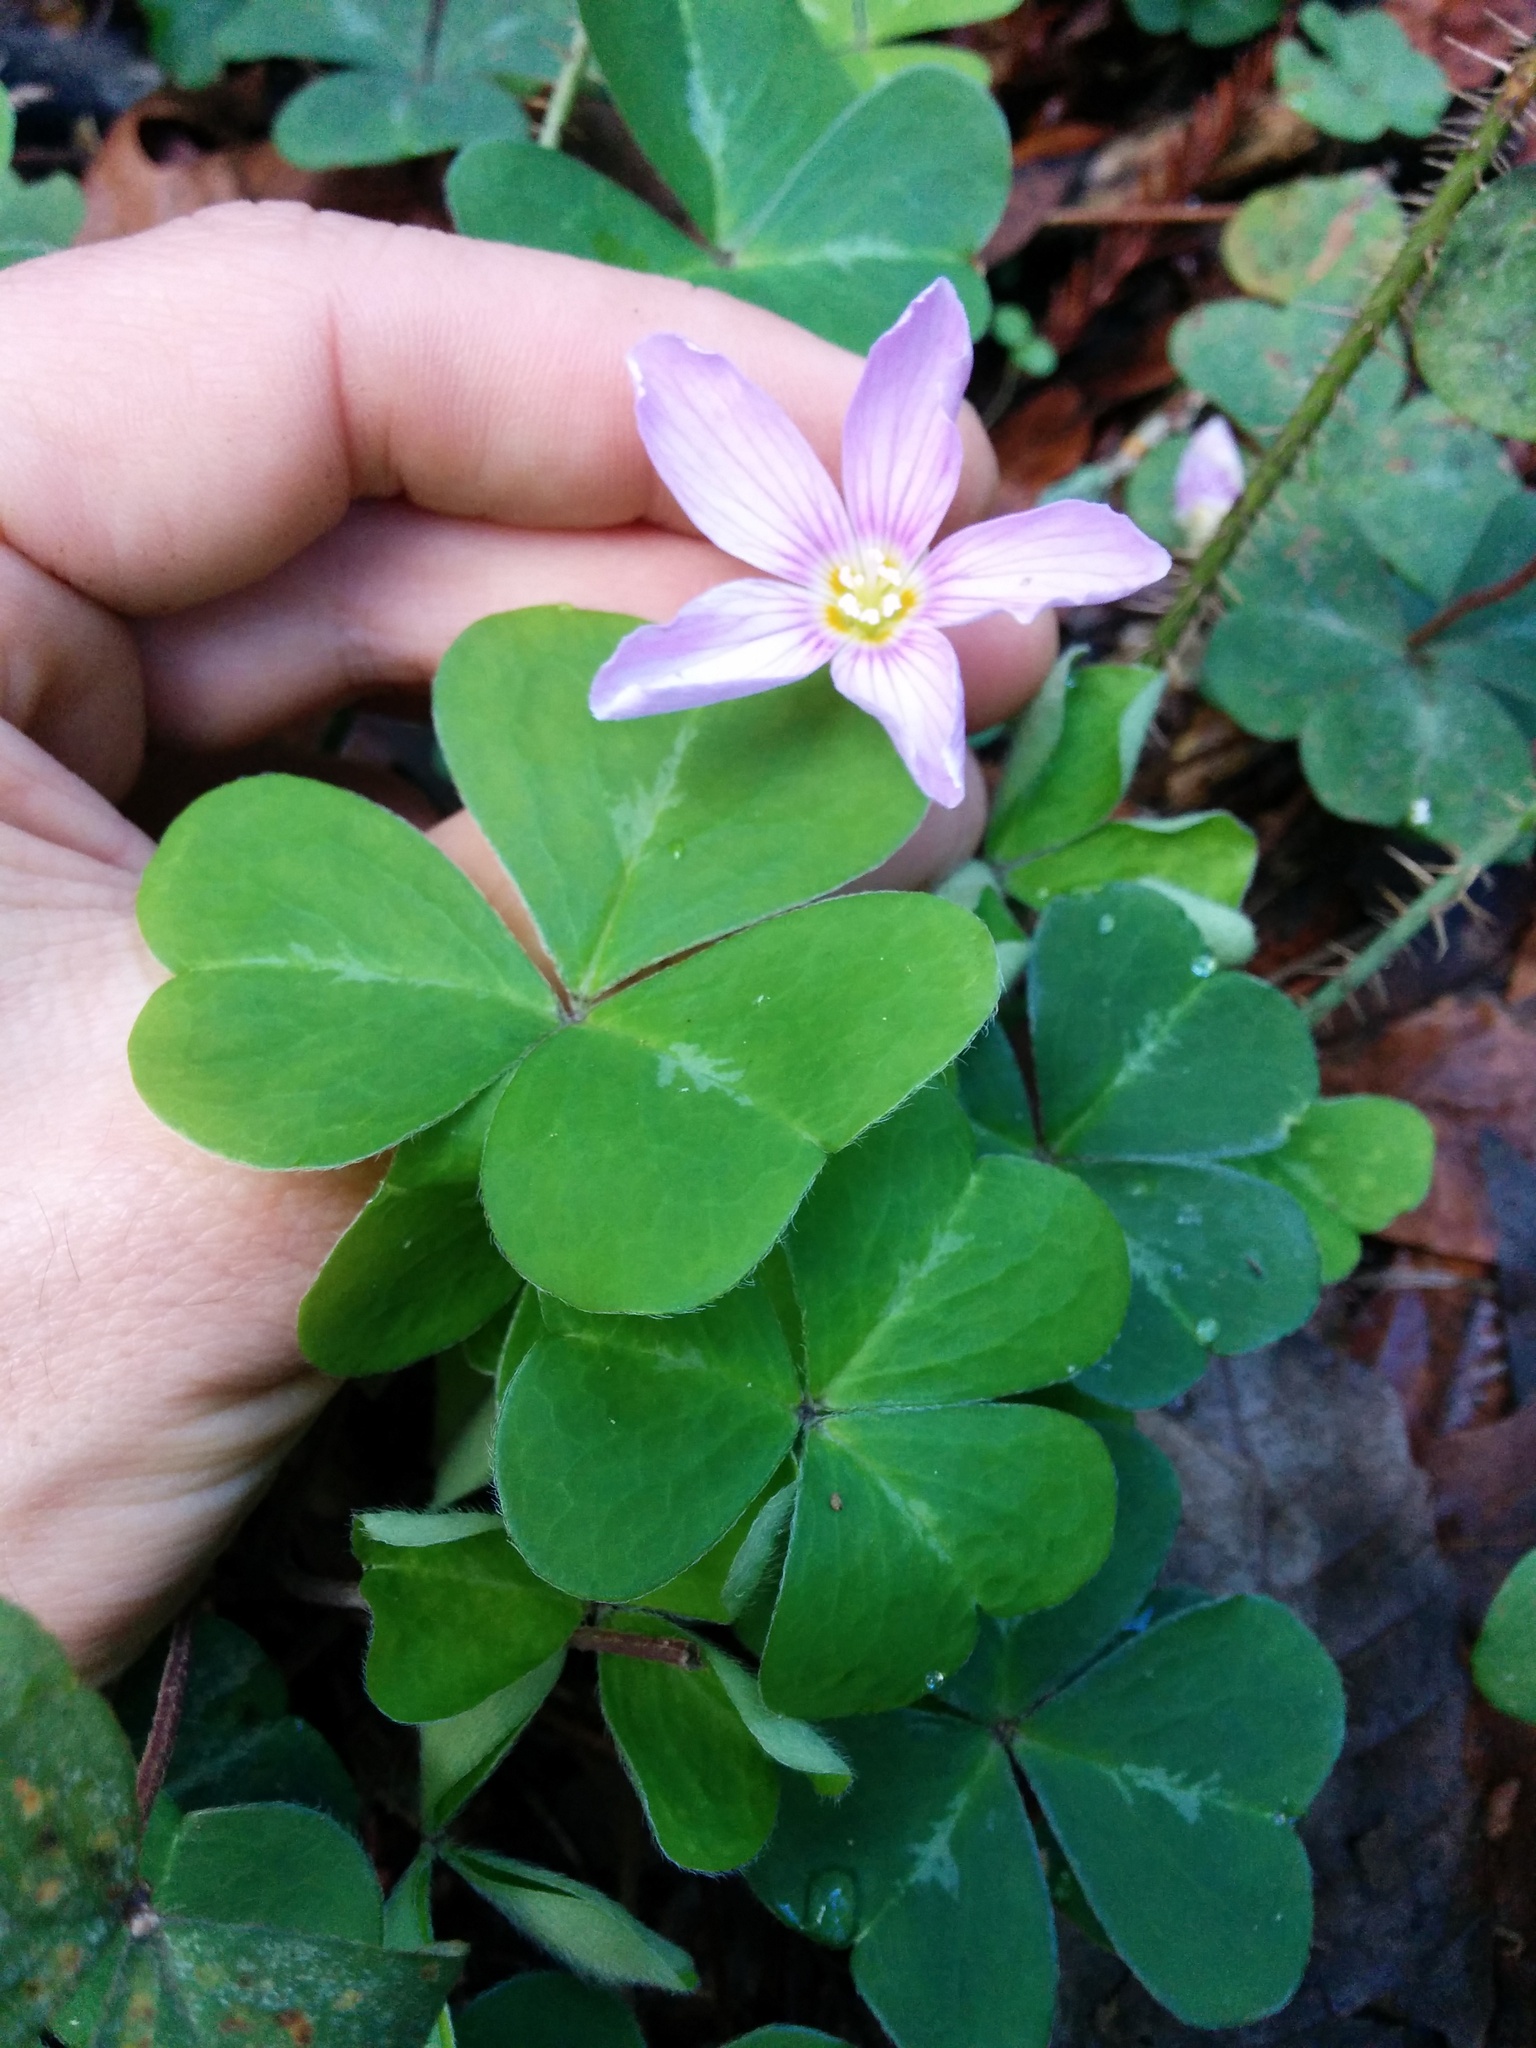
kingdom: Plantae
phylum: Tracheophyta
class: Magnoliopsida
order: Oxalidales
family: Oxalidaceae
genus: Oxalis
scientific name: Oxalis oregana
